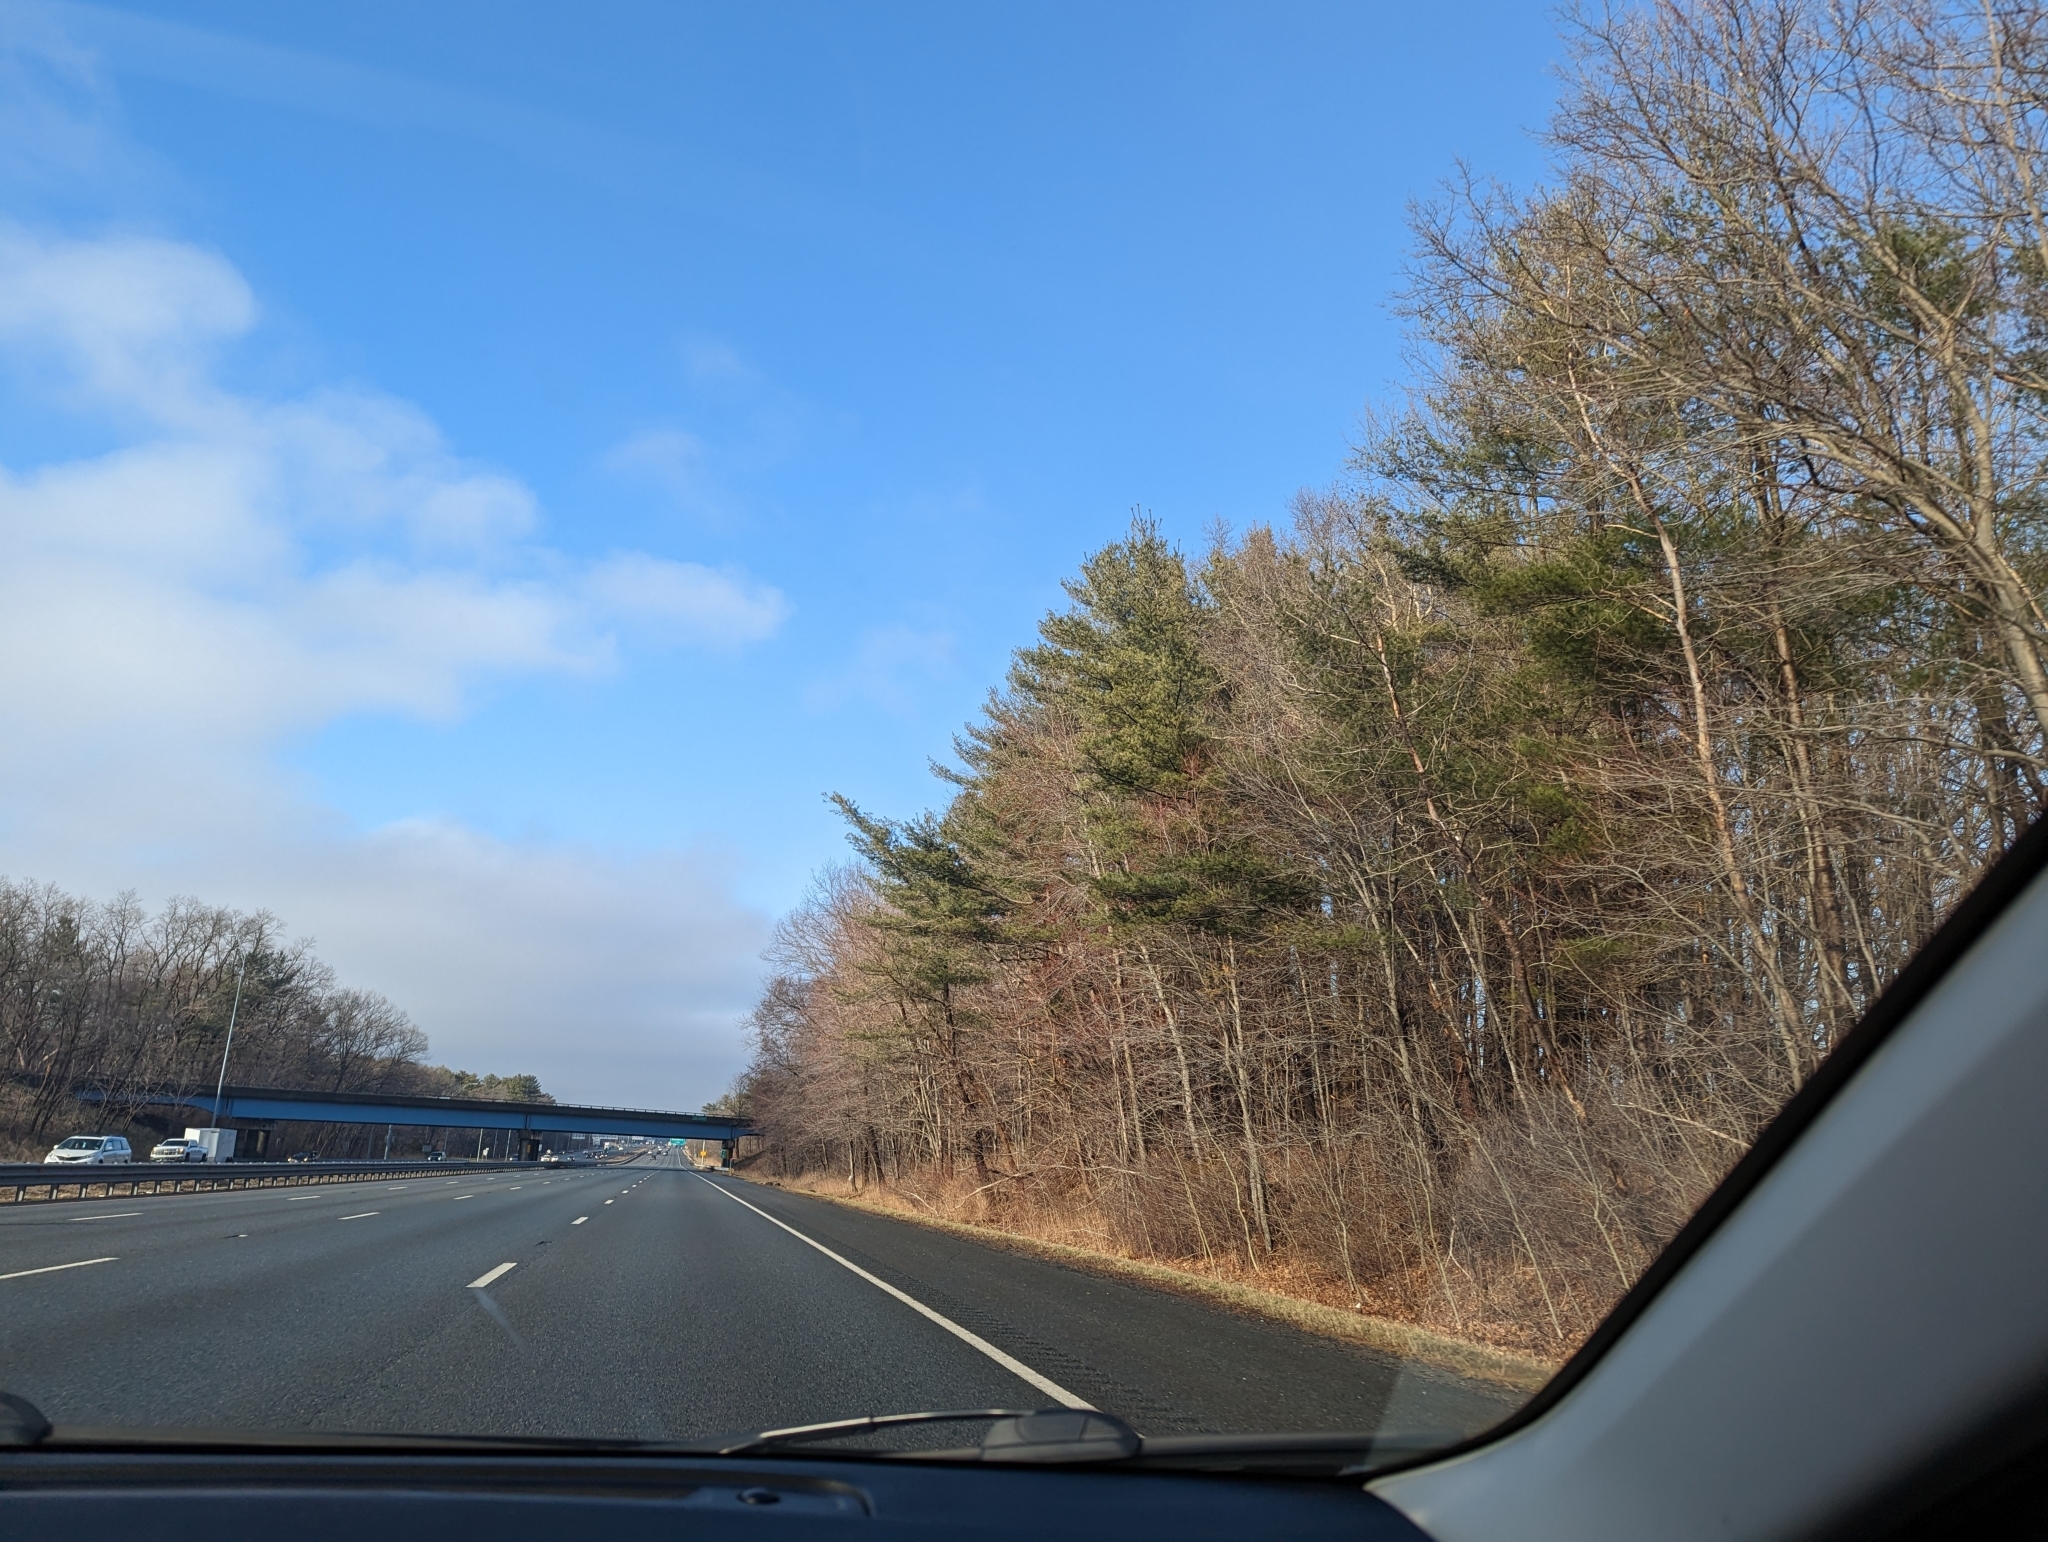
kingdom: Plantae
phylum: Tracheophyta
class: Pinopsida
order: Pinales
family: Pinaceae
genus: Pinus
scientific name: Pinus strobus
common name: Weymouth pine
